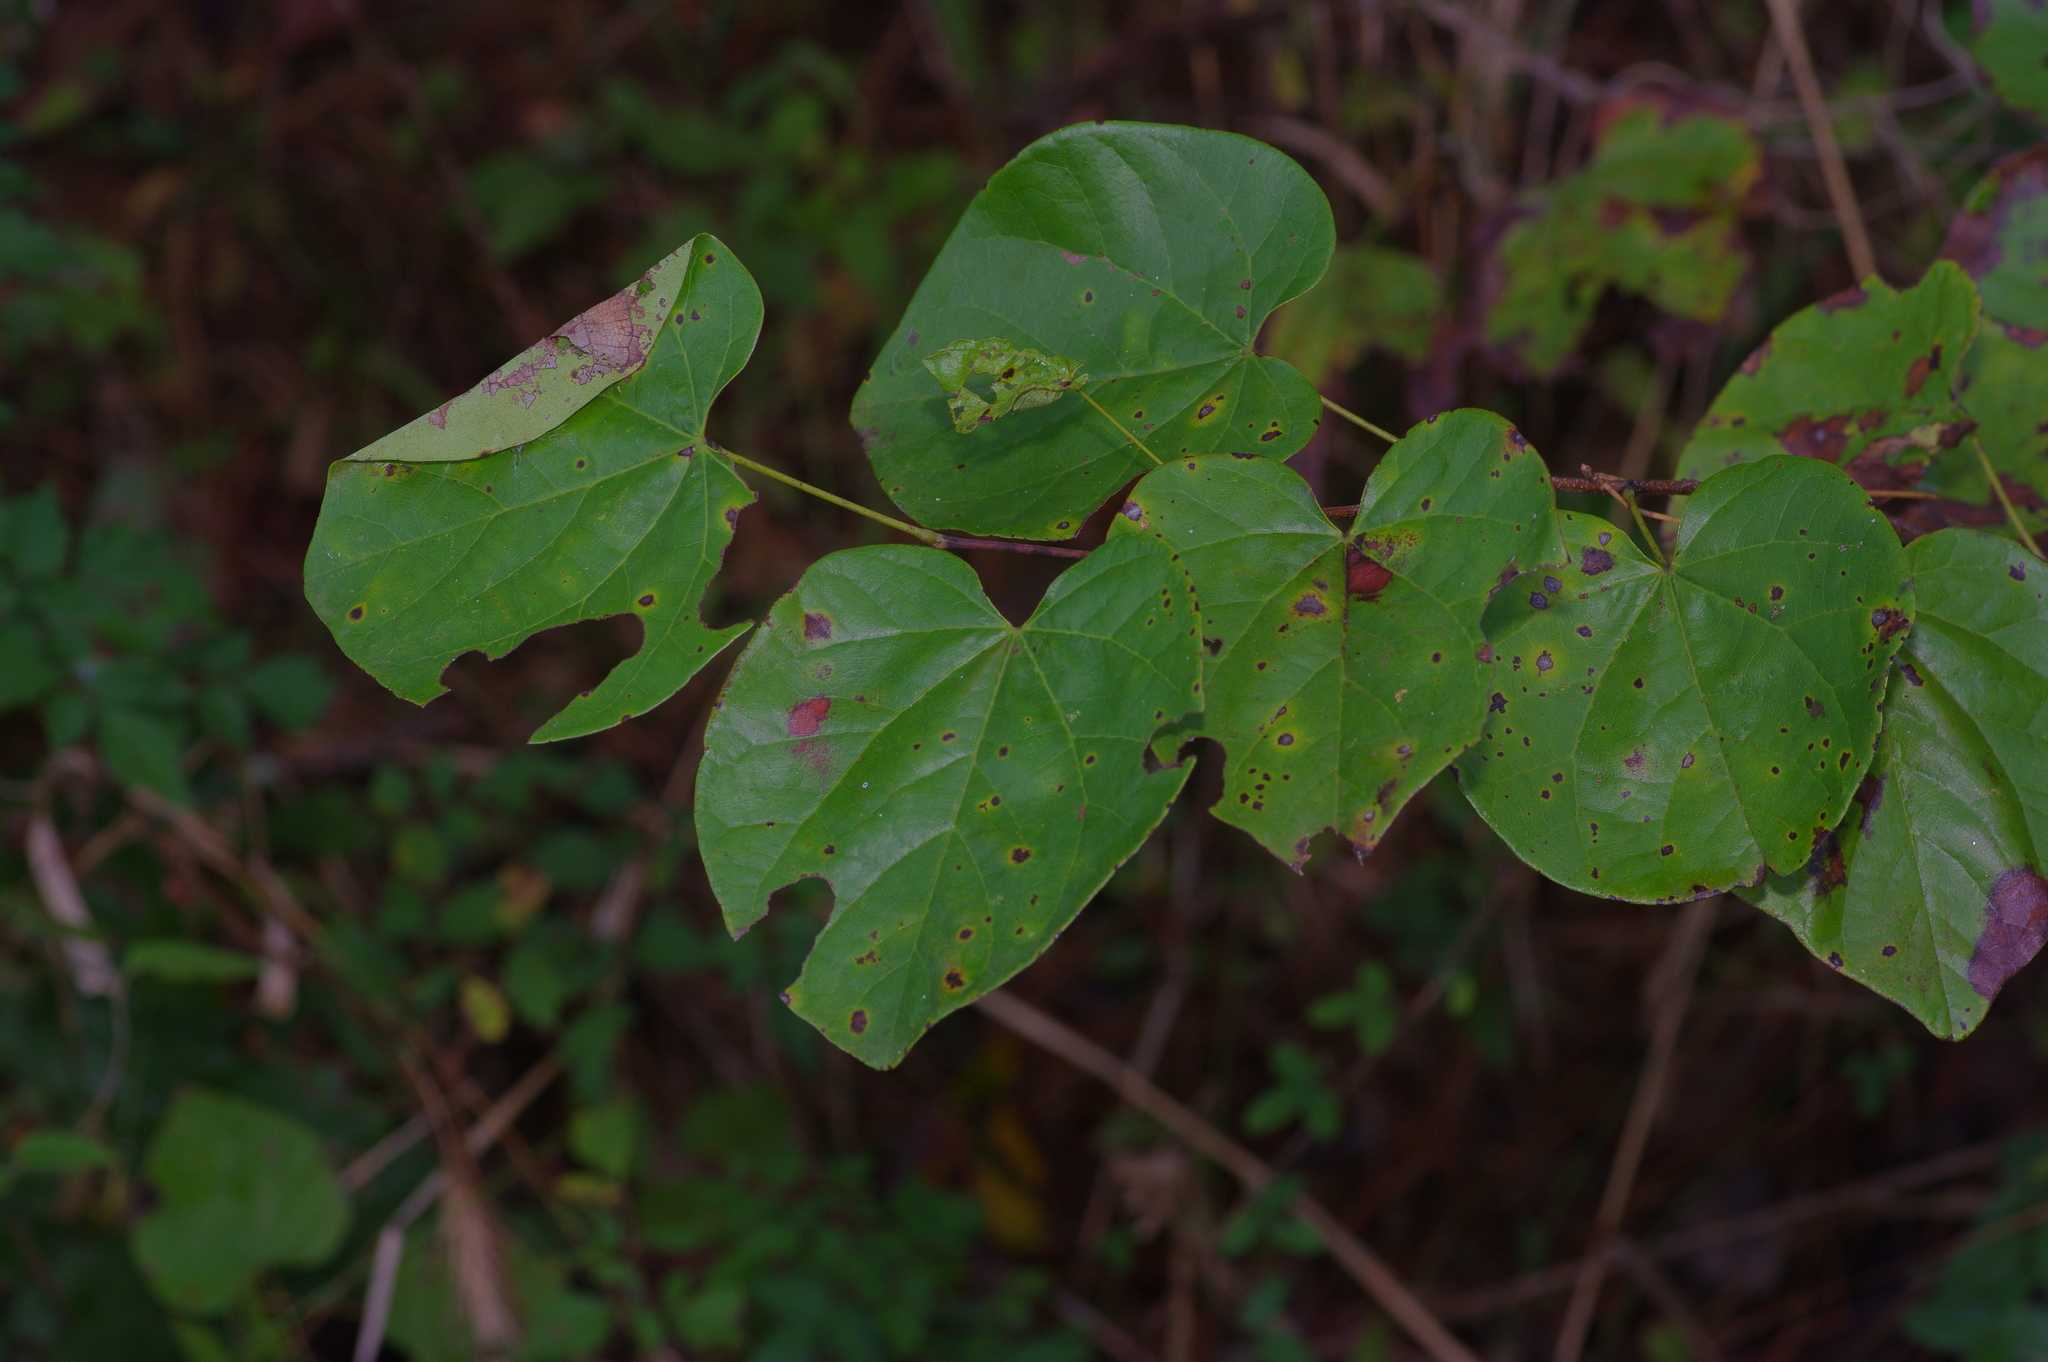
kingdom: Plantae
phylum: Tracheophyta
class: Magnoliopsida
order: Fabales
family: Fabaceae
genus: Cercis
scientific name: Cercis canadensis
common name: Eastern redbud
